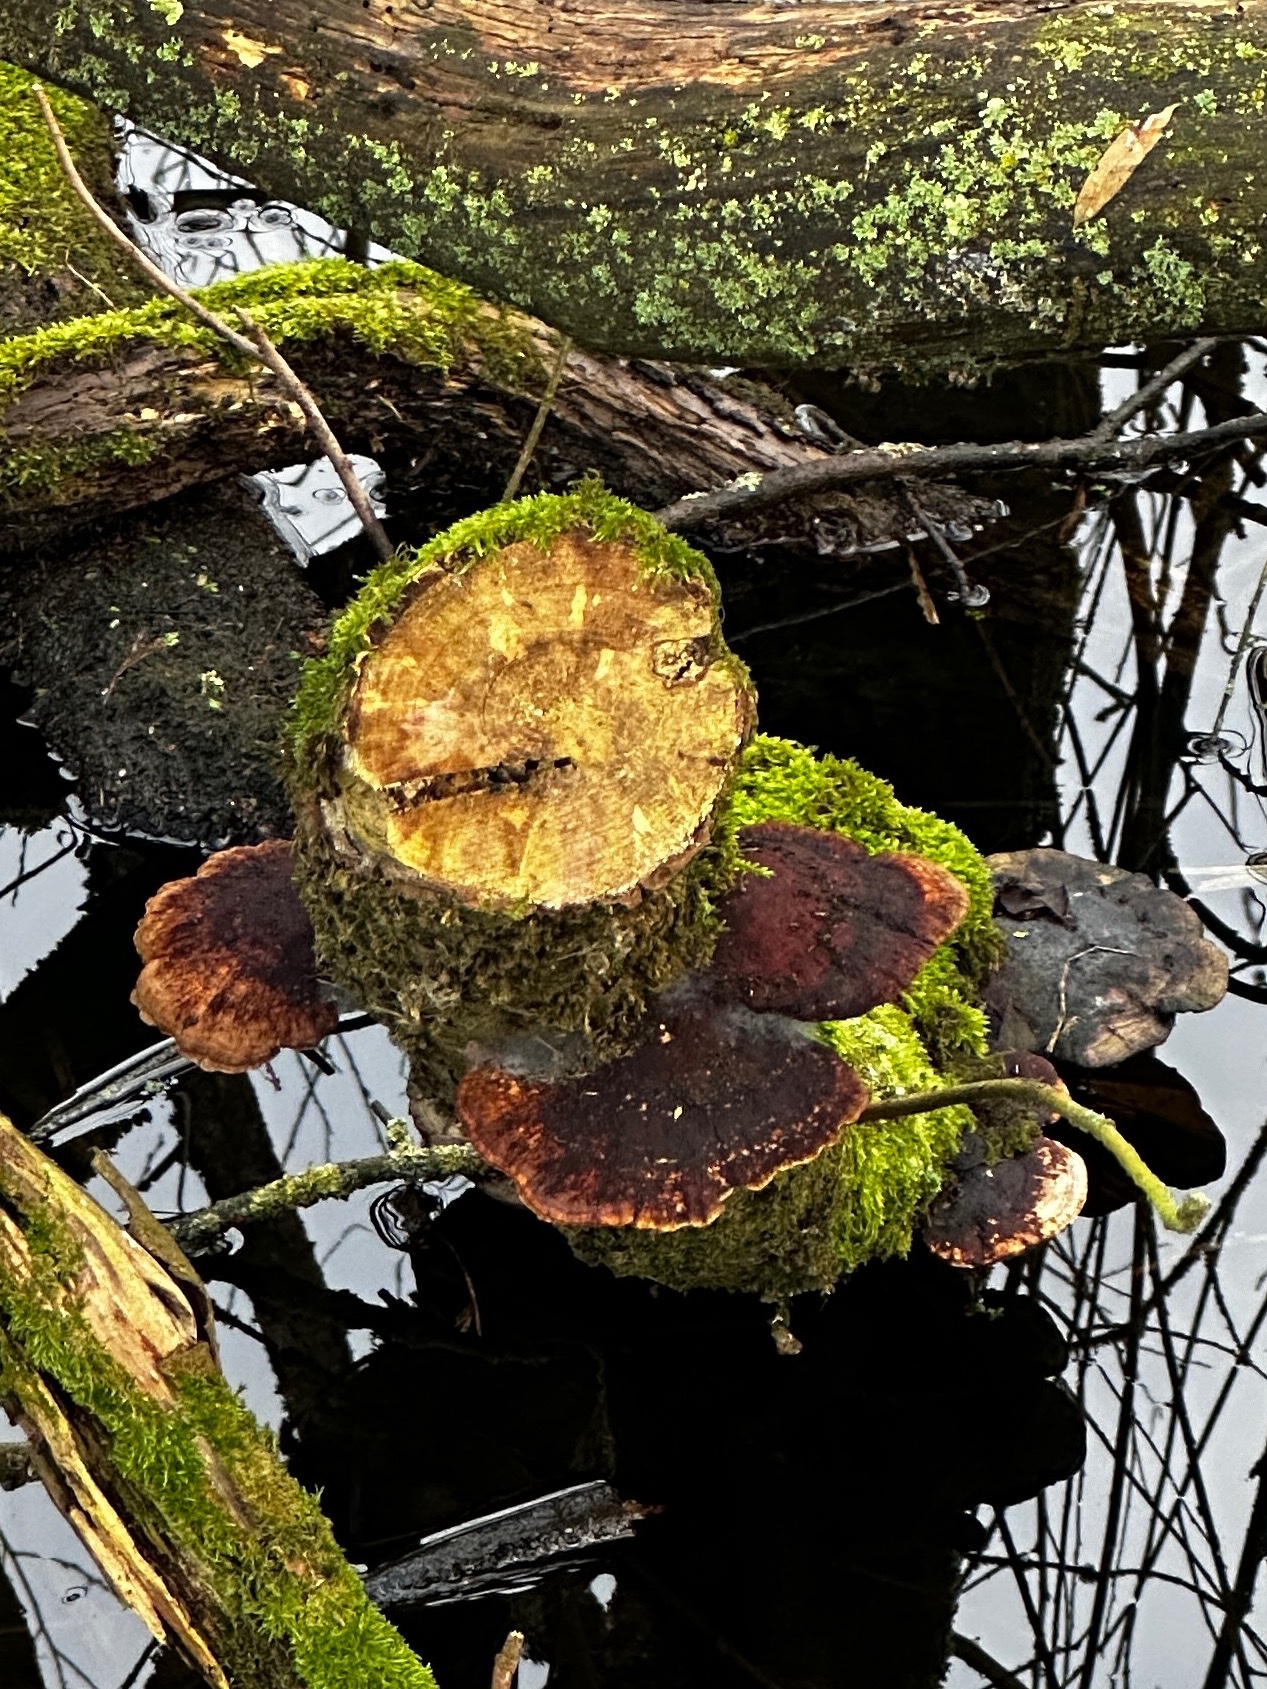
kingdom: Fungi
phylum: Basidiomycota
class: Agaricomycetes
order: Polyporales
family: Polyporaceae
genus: Daedaleopsis
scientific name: Daedaleopsis confragosa
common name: Blushing bracket
